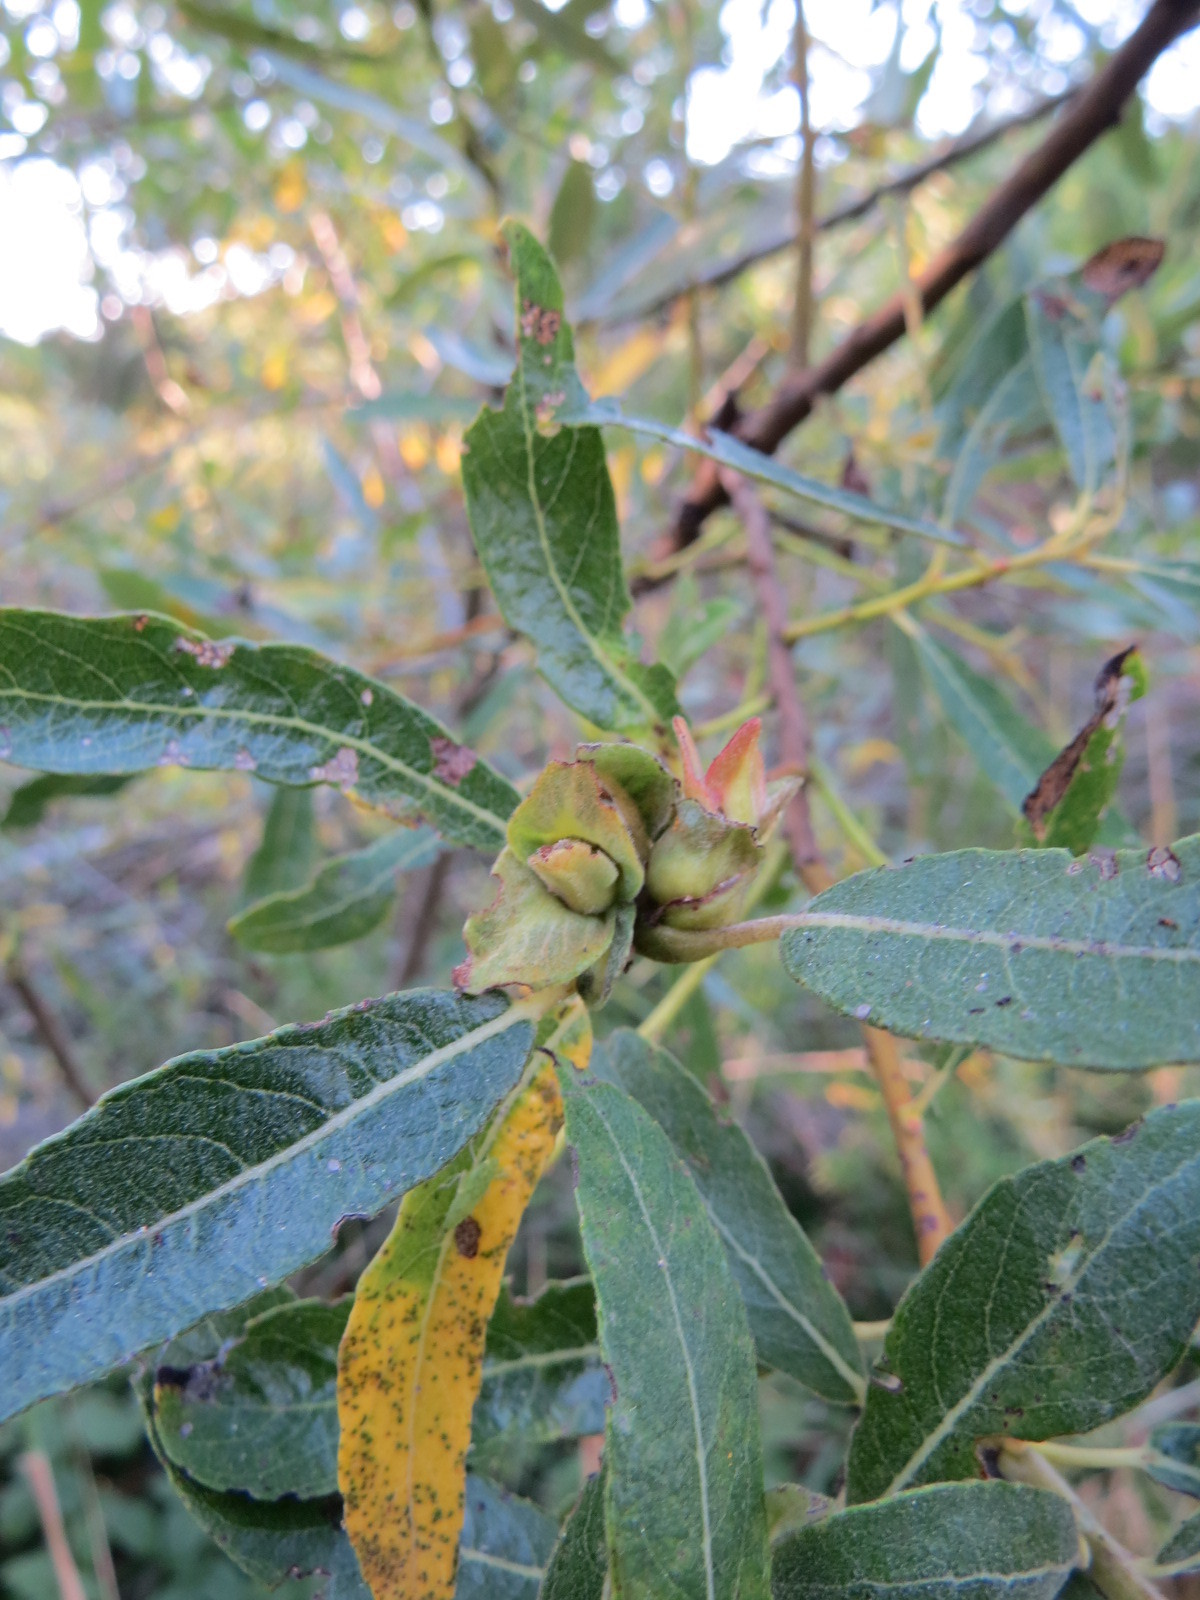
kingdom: Animalia
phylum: Arthropoda
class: Insecta
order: Diptera
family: Cecidomyiidae
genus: Rabdophaga
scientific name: Rabdophaga salicisbrassicoides
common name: Willow cabbagegall midge
